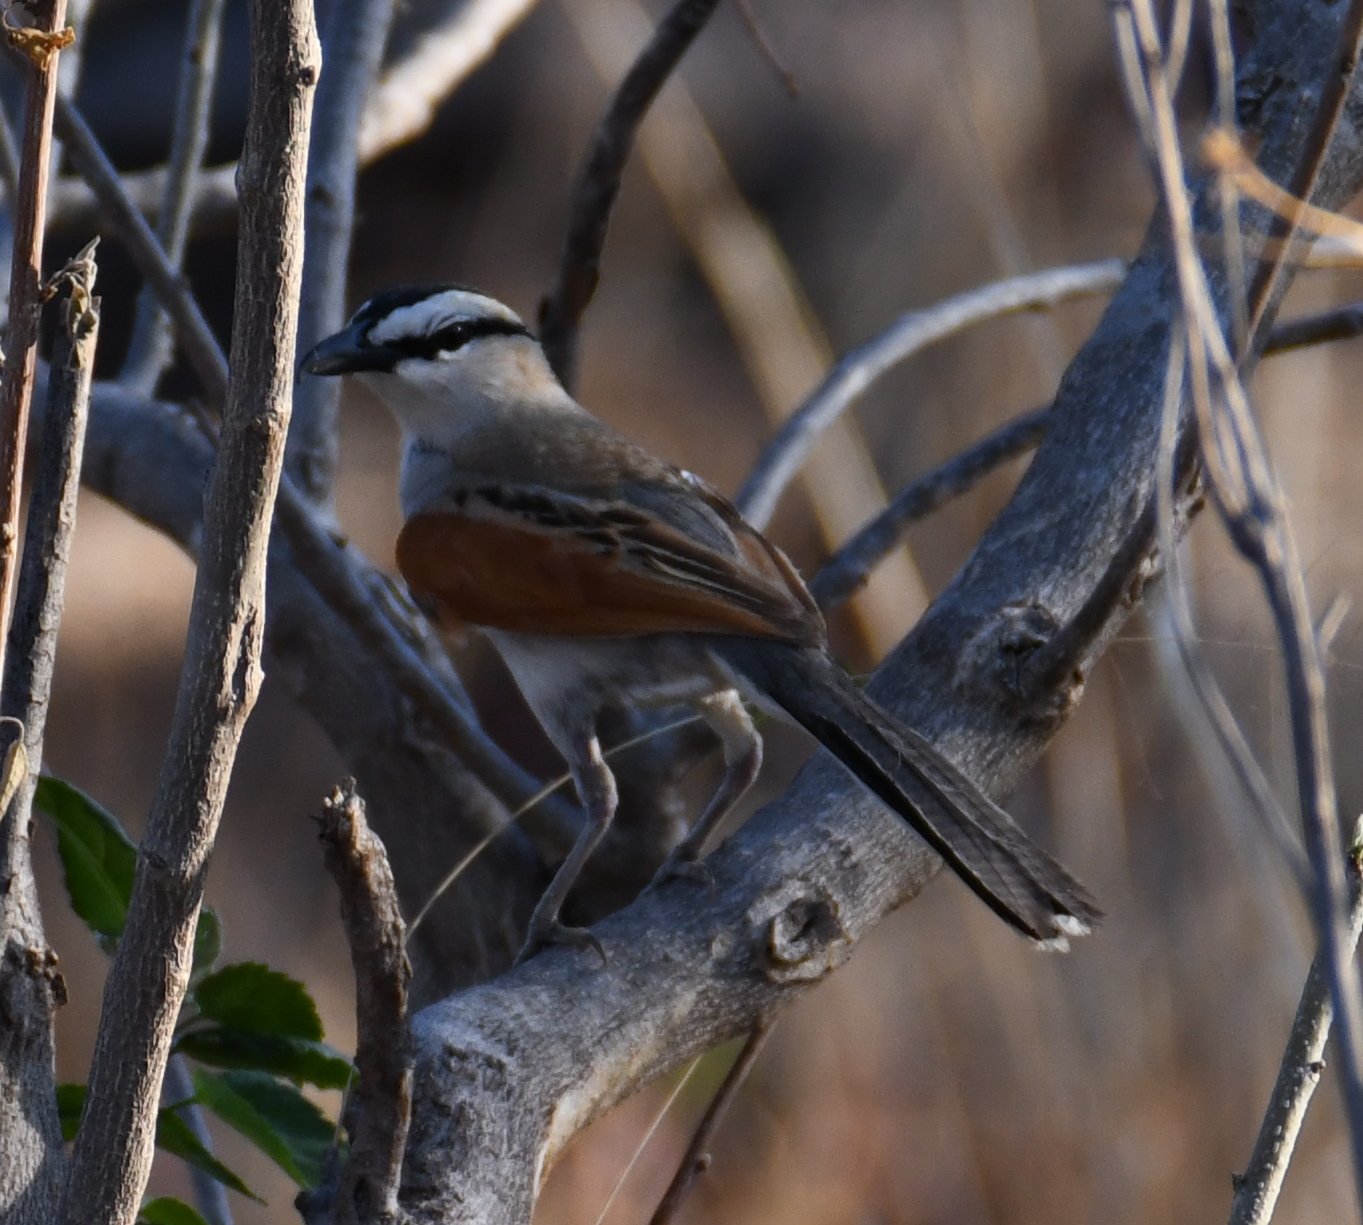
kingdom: Animalia
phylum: Chordata
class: Aves
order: Passeriformes
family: Malaconotidae
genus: Tchagra
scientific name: Tchagra senegalus
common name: Black-crowned tchagra
